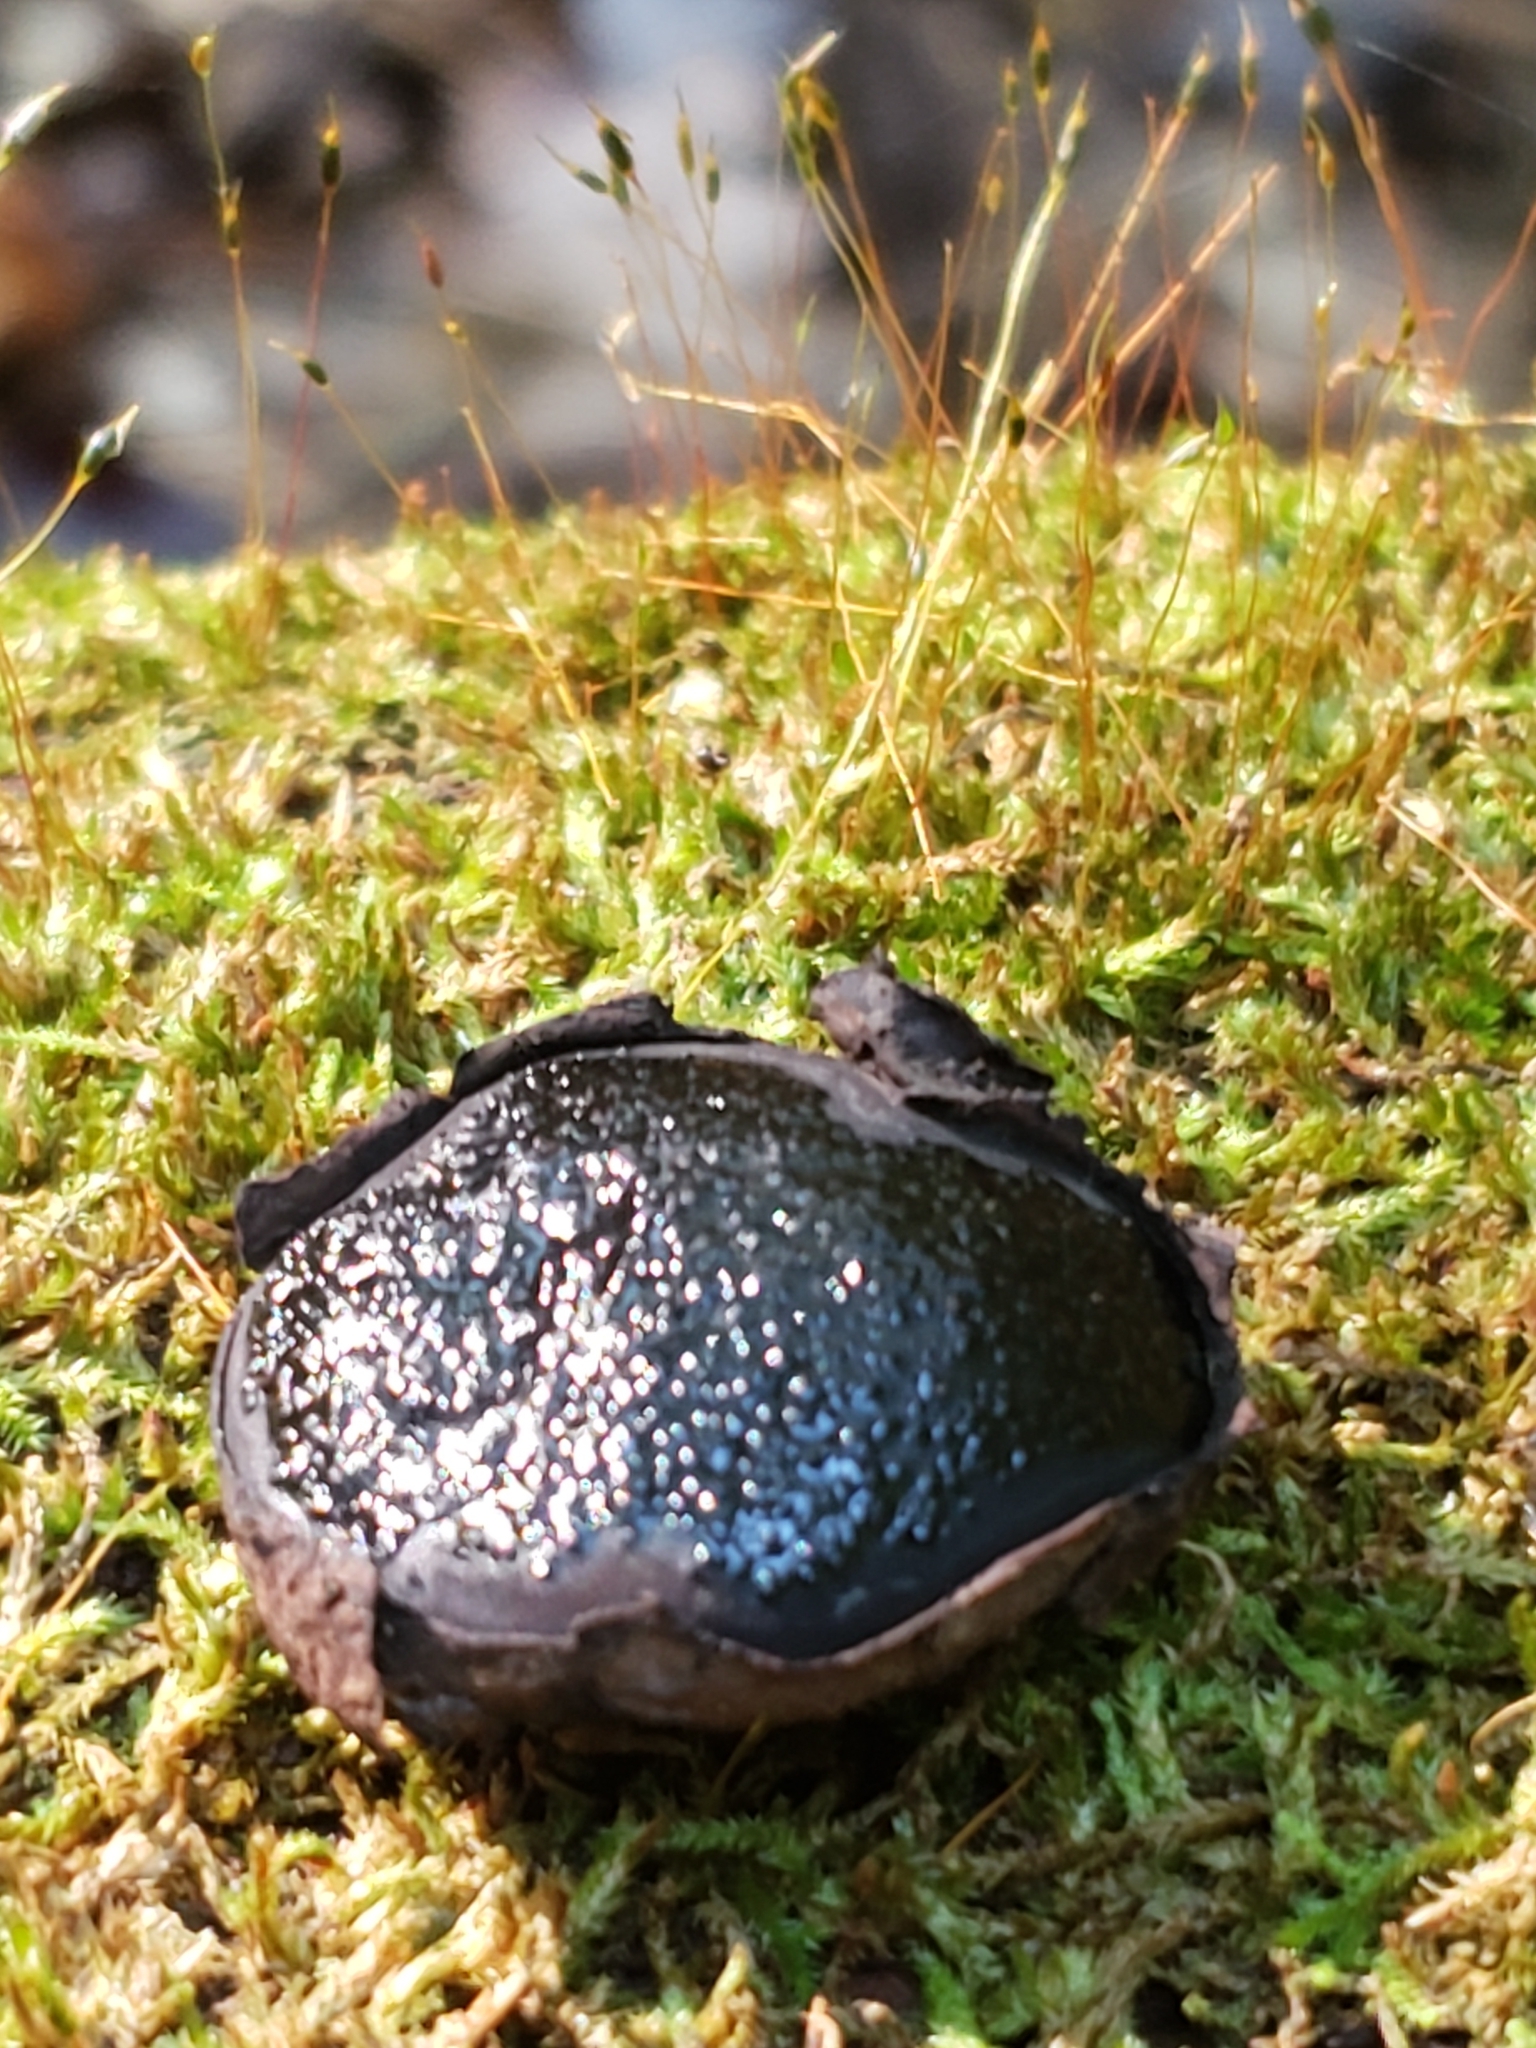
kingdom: Fungi
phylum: Ascomycota
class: Sordariomycetes
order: Boliniales
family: Boliniaceae
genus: Camarops
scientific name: Camarops petersii
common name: Dog's nose fungus
